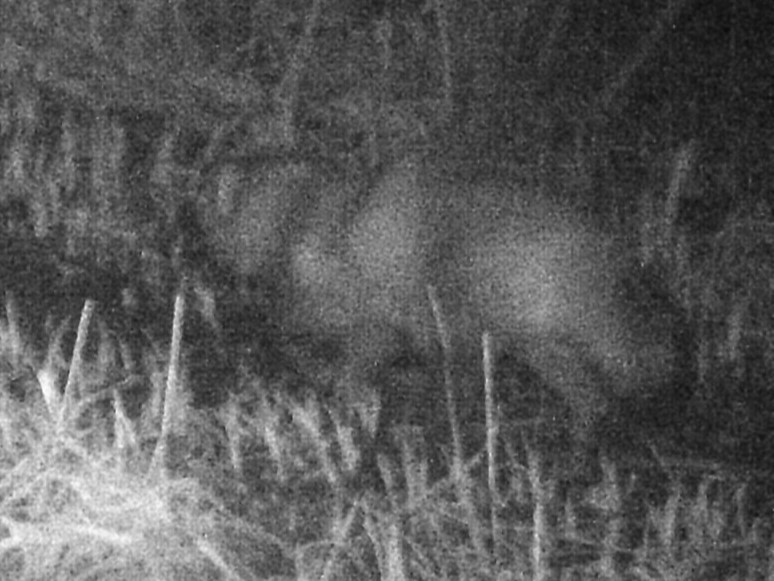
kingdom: Animalia
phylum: Chordata
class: Mammalia
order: Carnivora
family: Canidae
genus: Nyctereutes
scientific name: Nyctereutes procyonoides
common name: Raccoon dog
